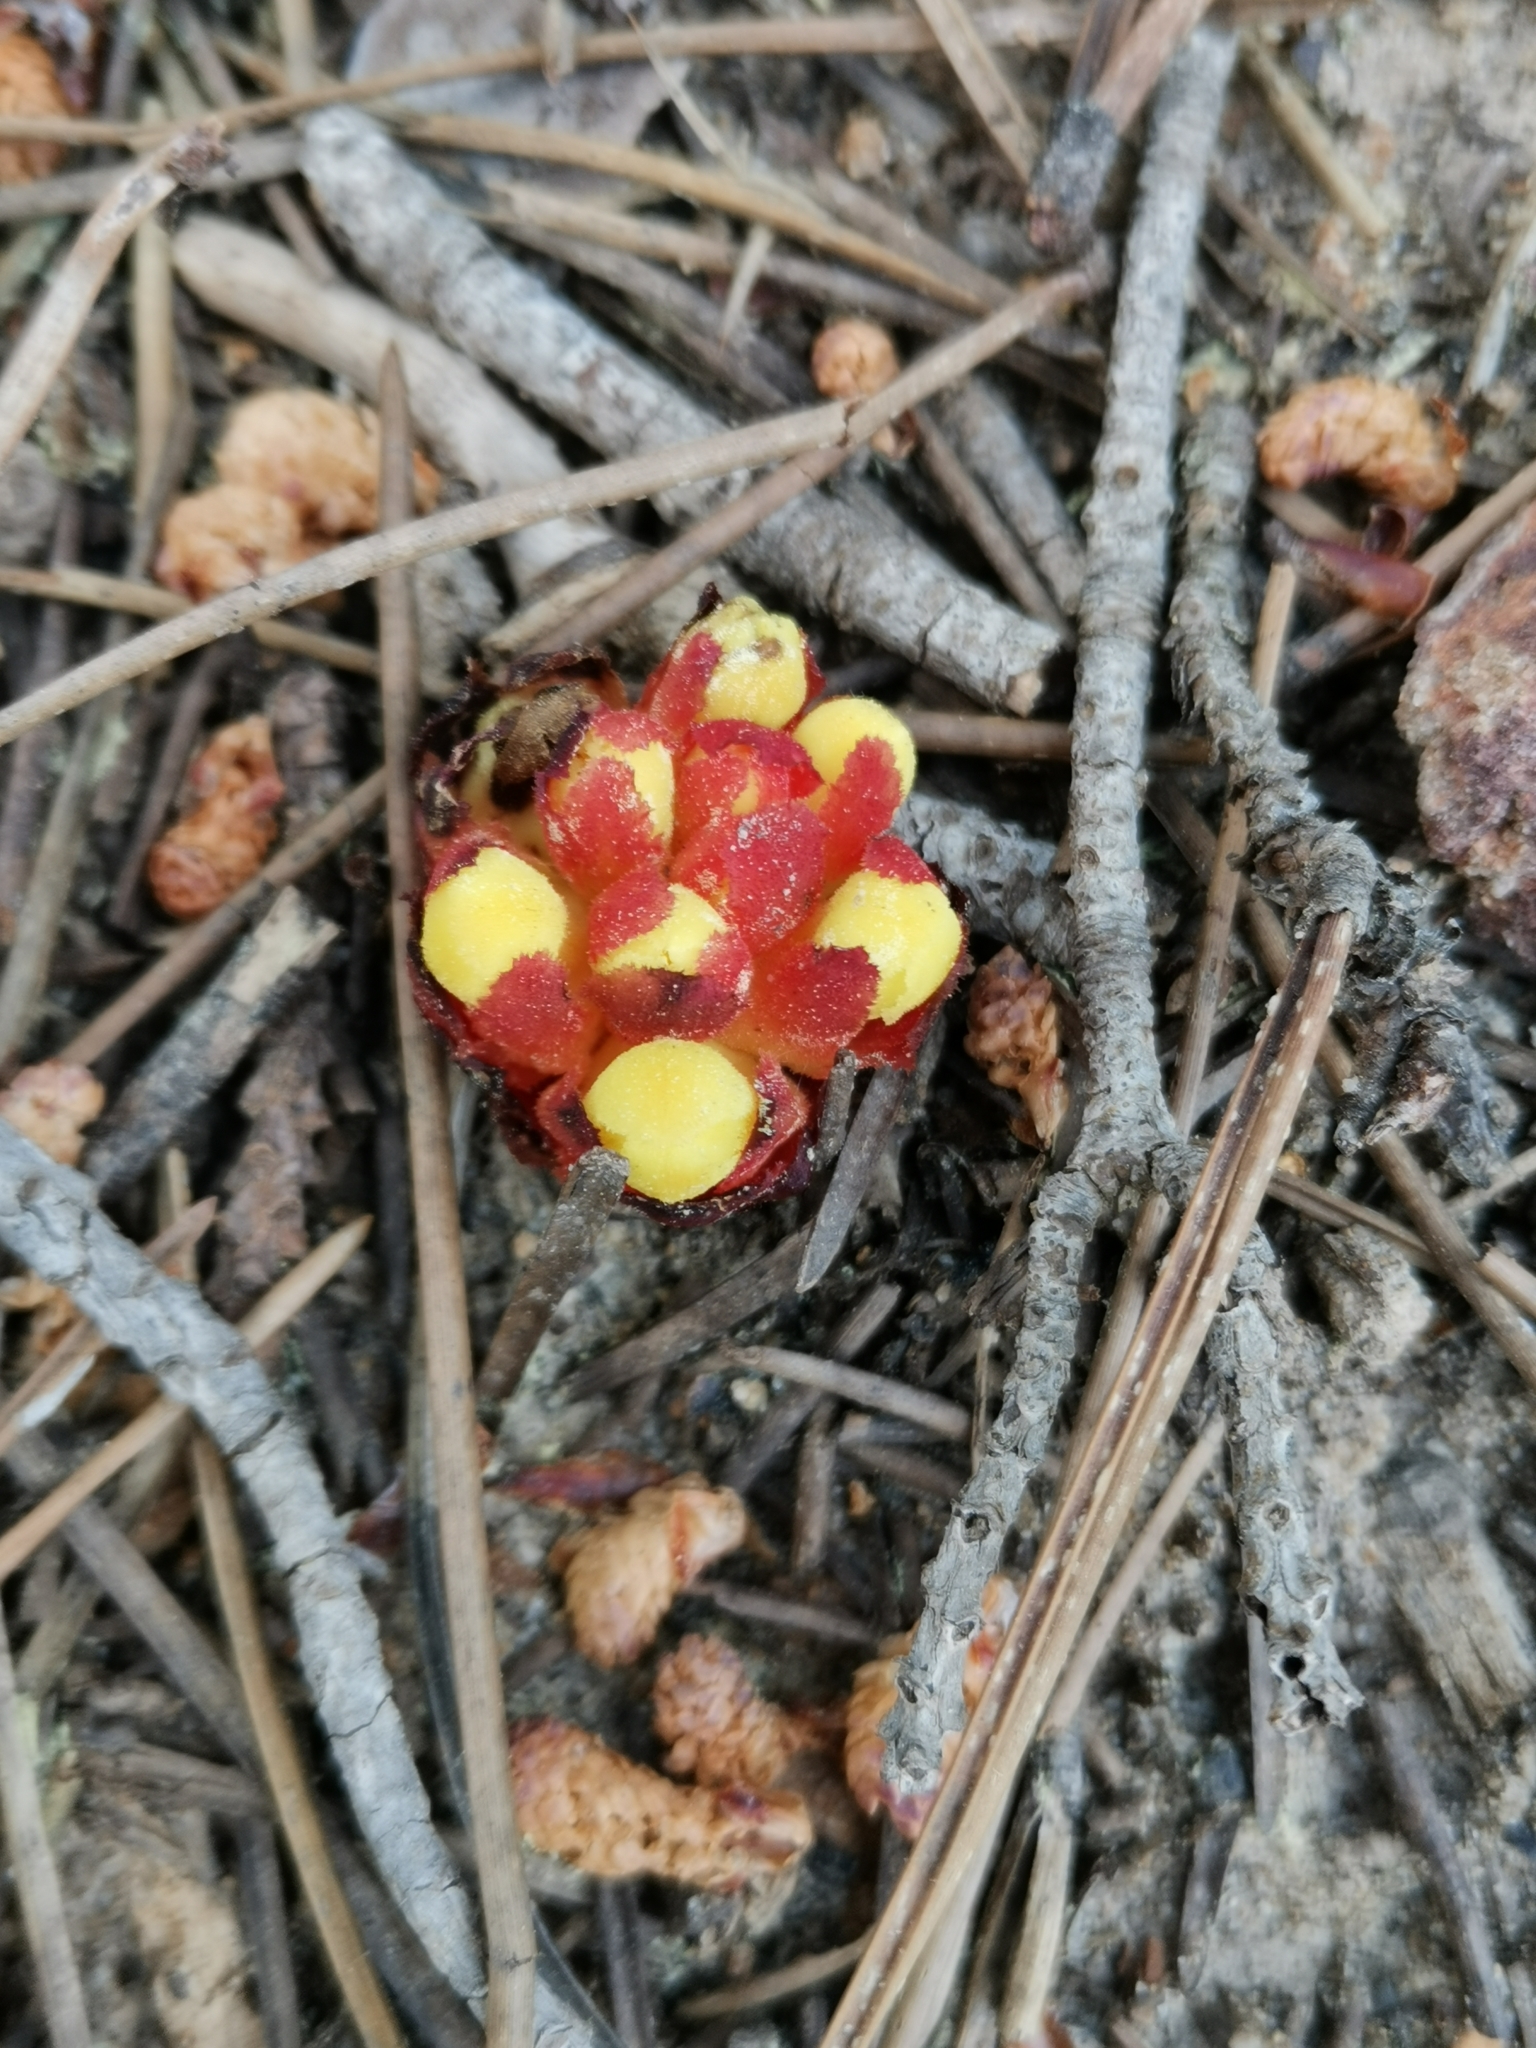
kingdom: Plantae
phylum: Tracheophyta
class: Magnoliopsida
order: Malvales
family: Cytinaceae
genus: Cytinus
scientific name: Cytinus hypocistis
